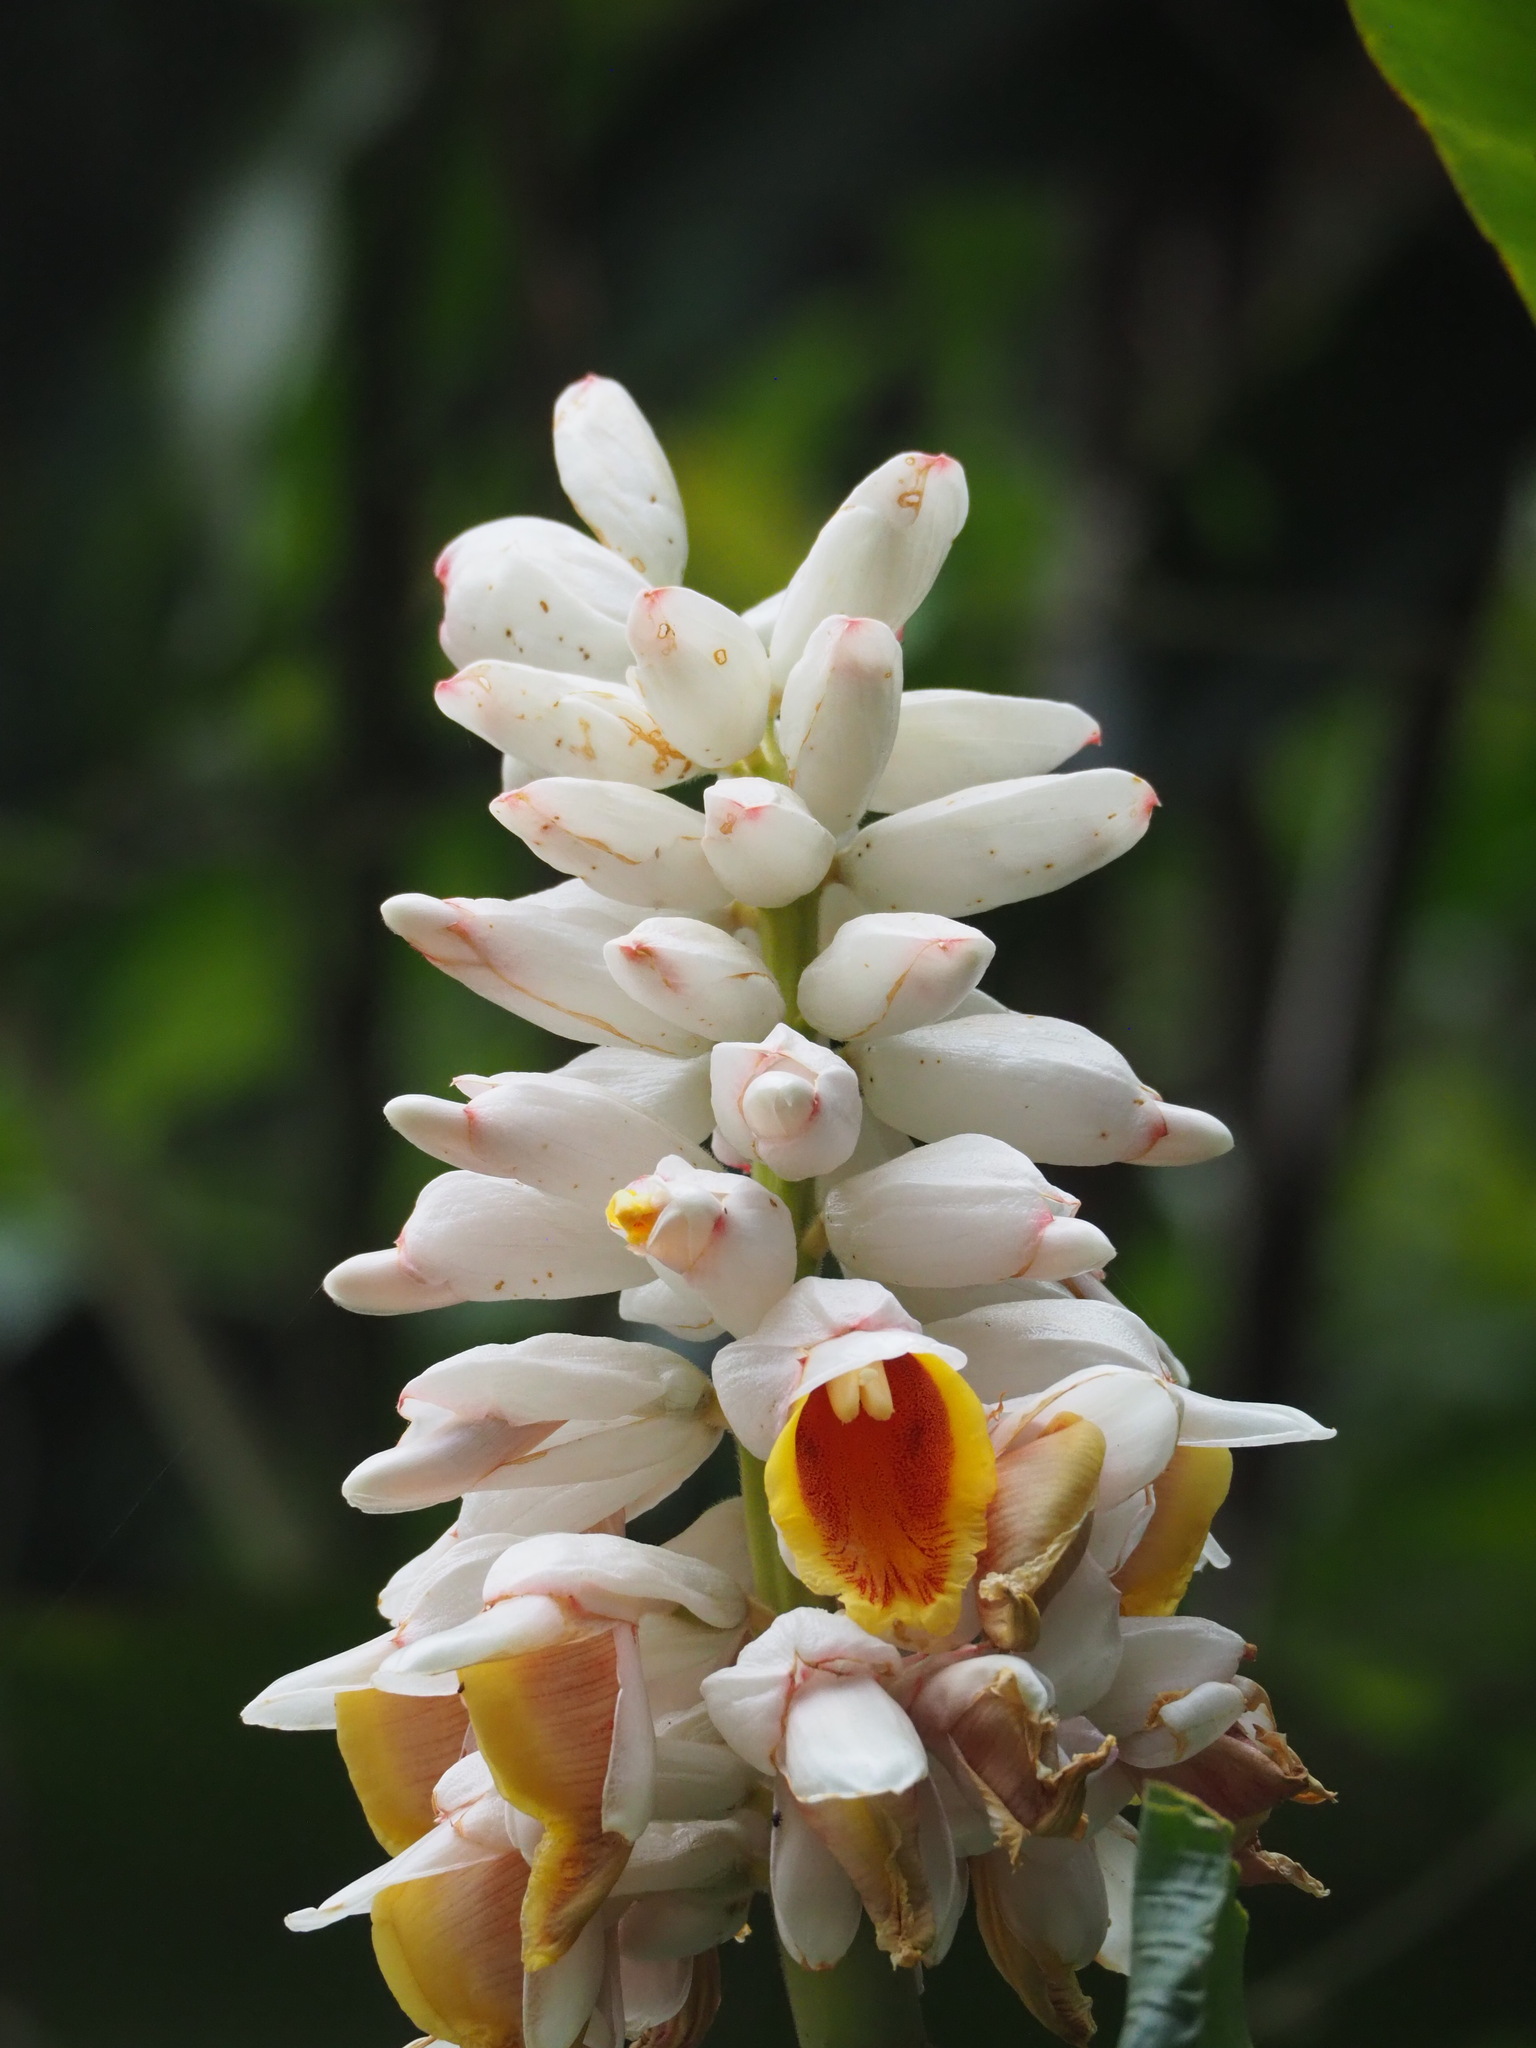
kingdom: Plantae
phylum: Tracheophyta
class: Liliopsida
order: Zingiberales
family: Zingiberaceae
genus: Alpinia
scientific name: Alpinia uraiensis
